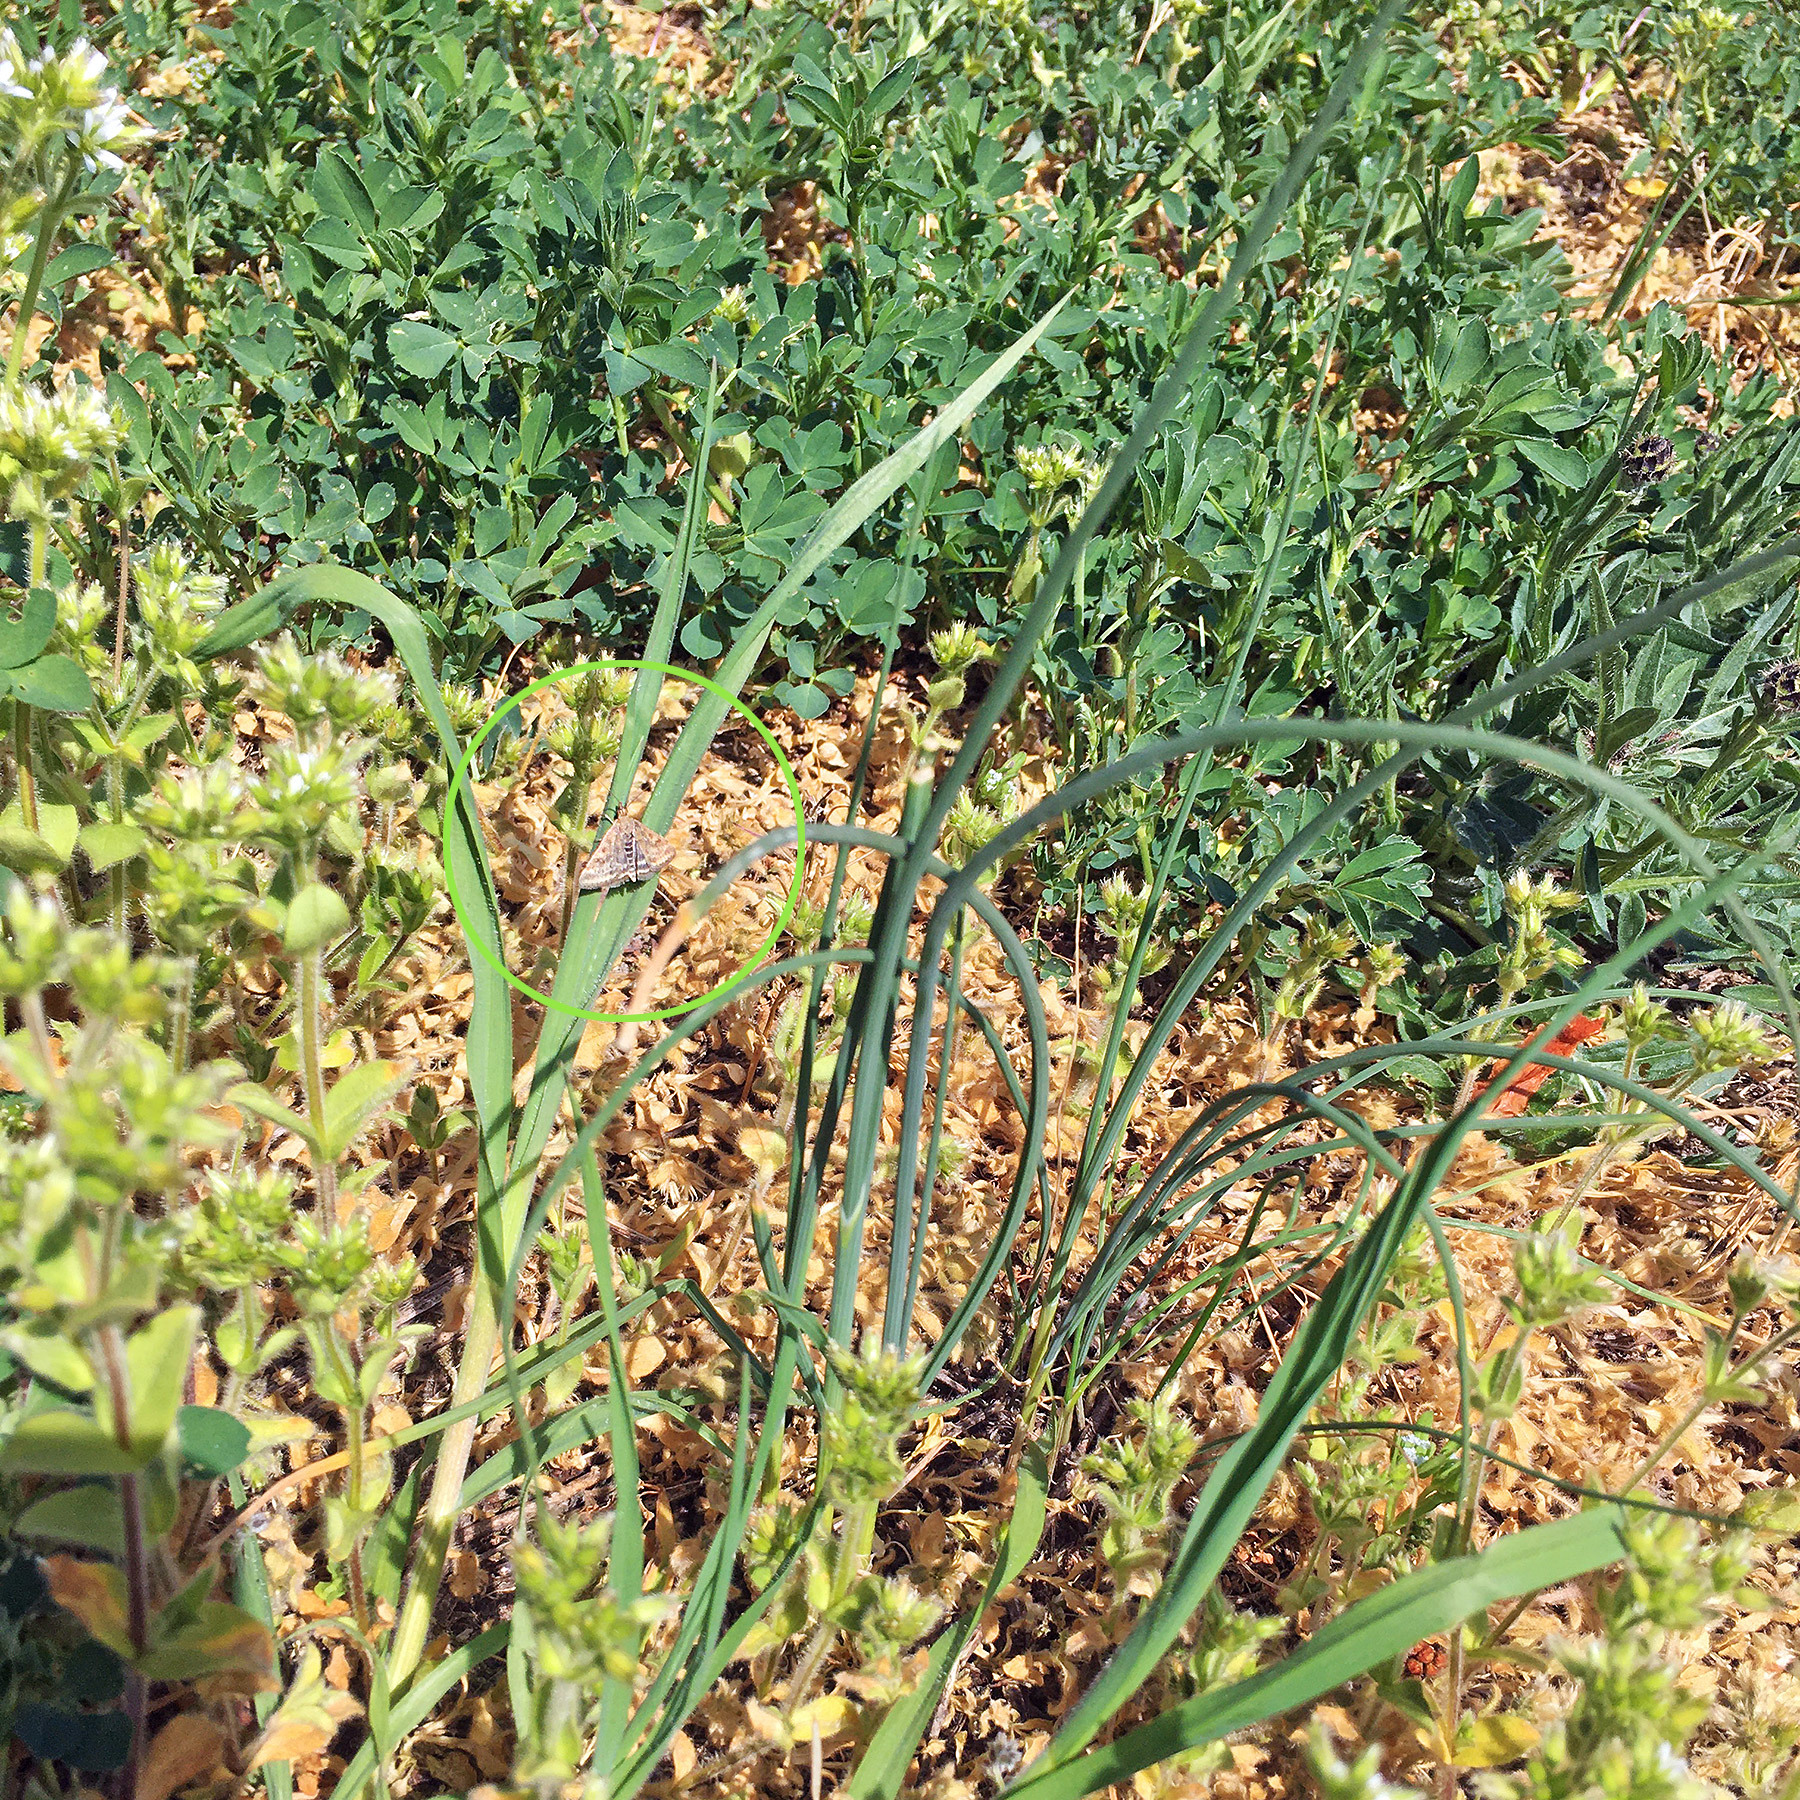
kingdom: Animalia
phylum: Arthropoda
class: Insecta
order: Lepidoptera
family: Crambidae
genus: Pyrausta
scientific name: Pyrausta despicata
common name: Straw-barred pearl
